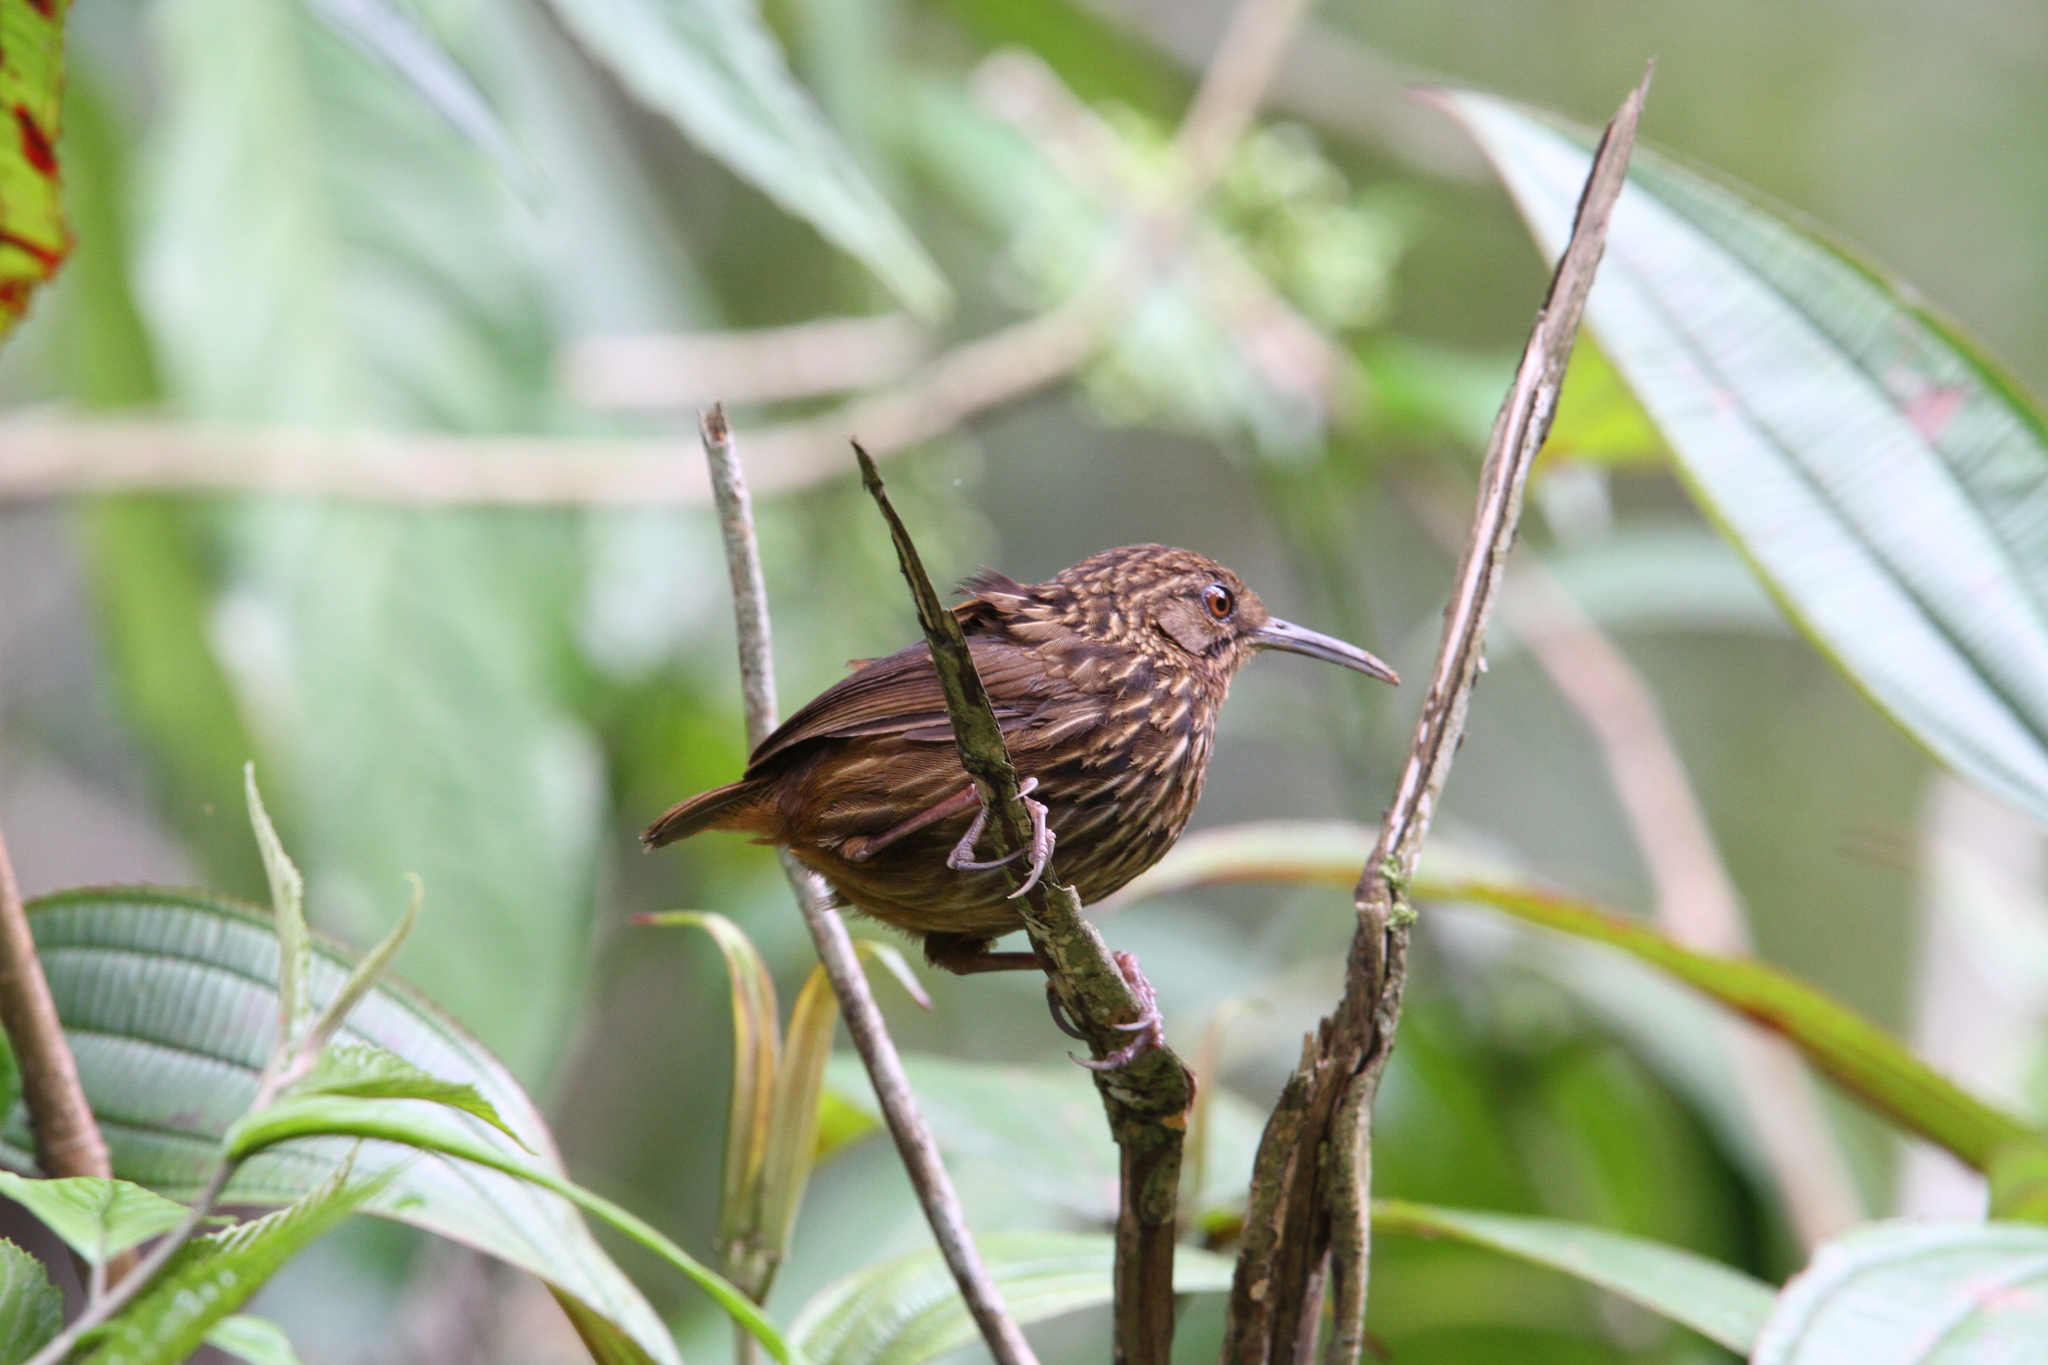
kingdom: Animalia
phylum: Chordata
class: Aves
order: Passeriformes
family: Pellorneidae
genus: Rimator
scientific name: Rimator malacoptilus
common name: Long-billed wren-babbler
